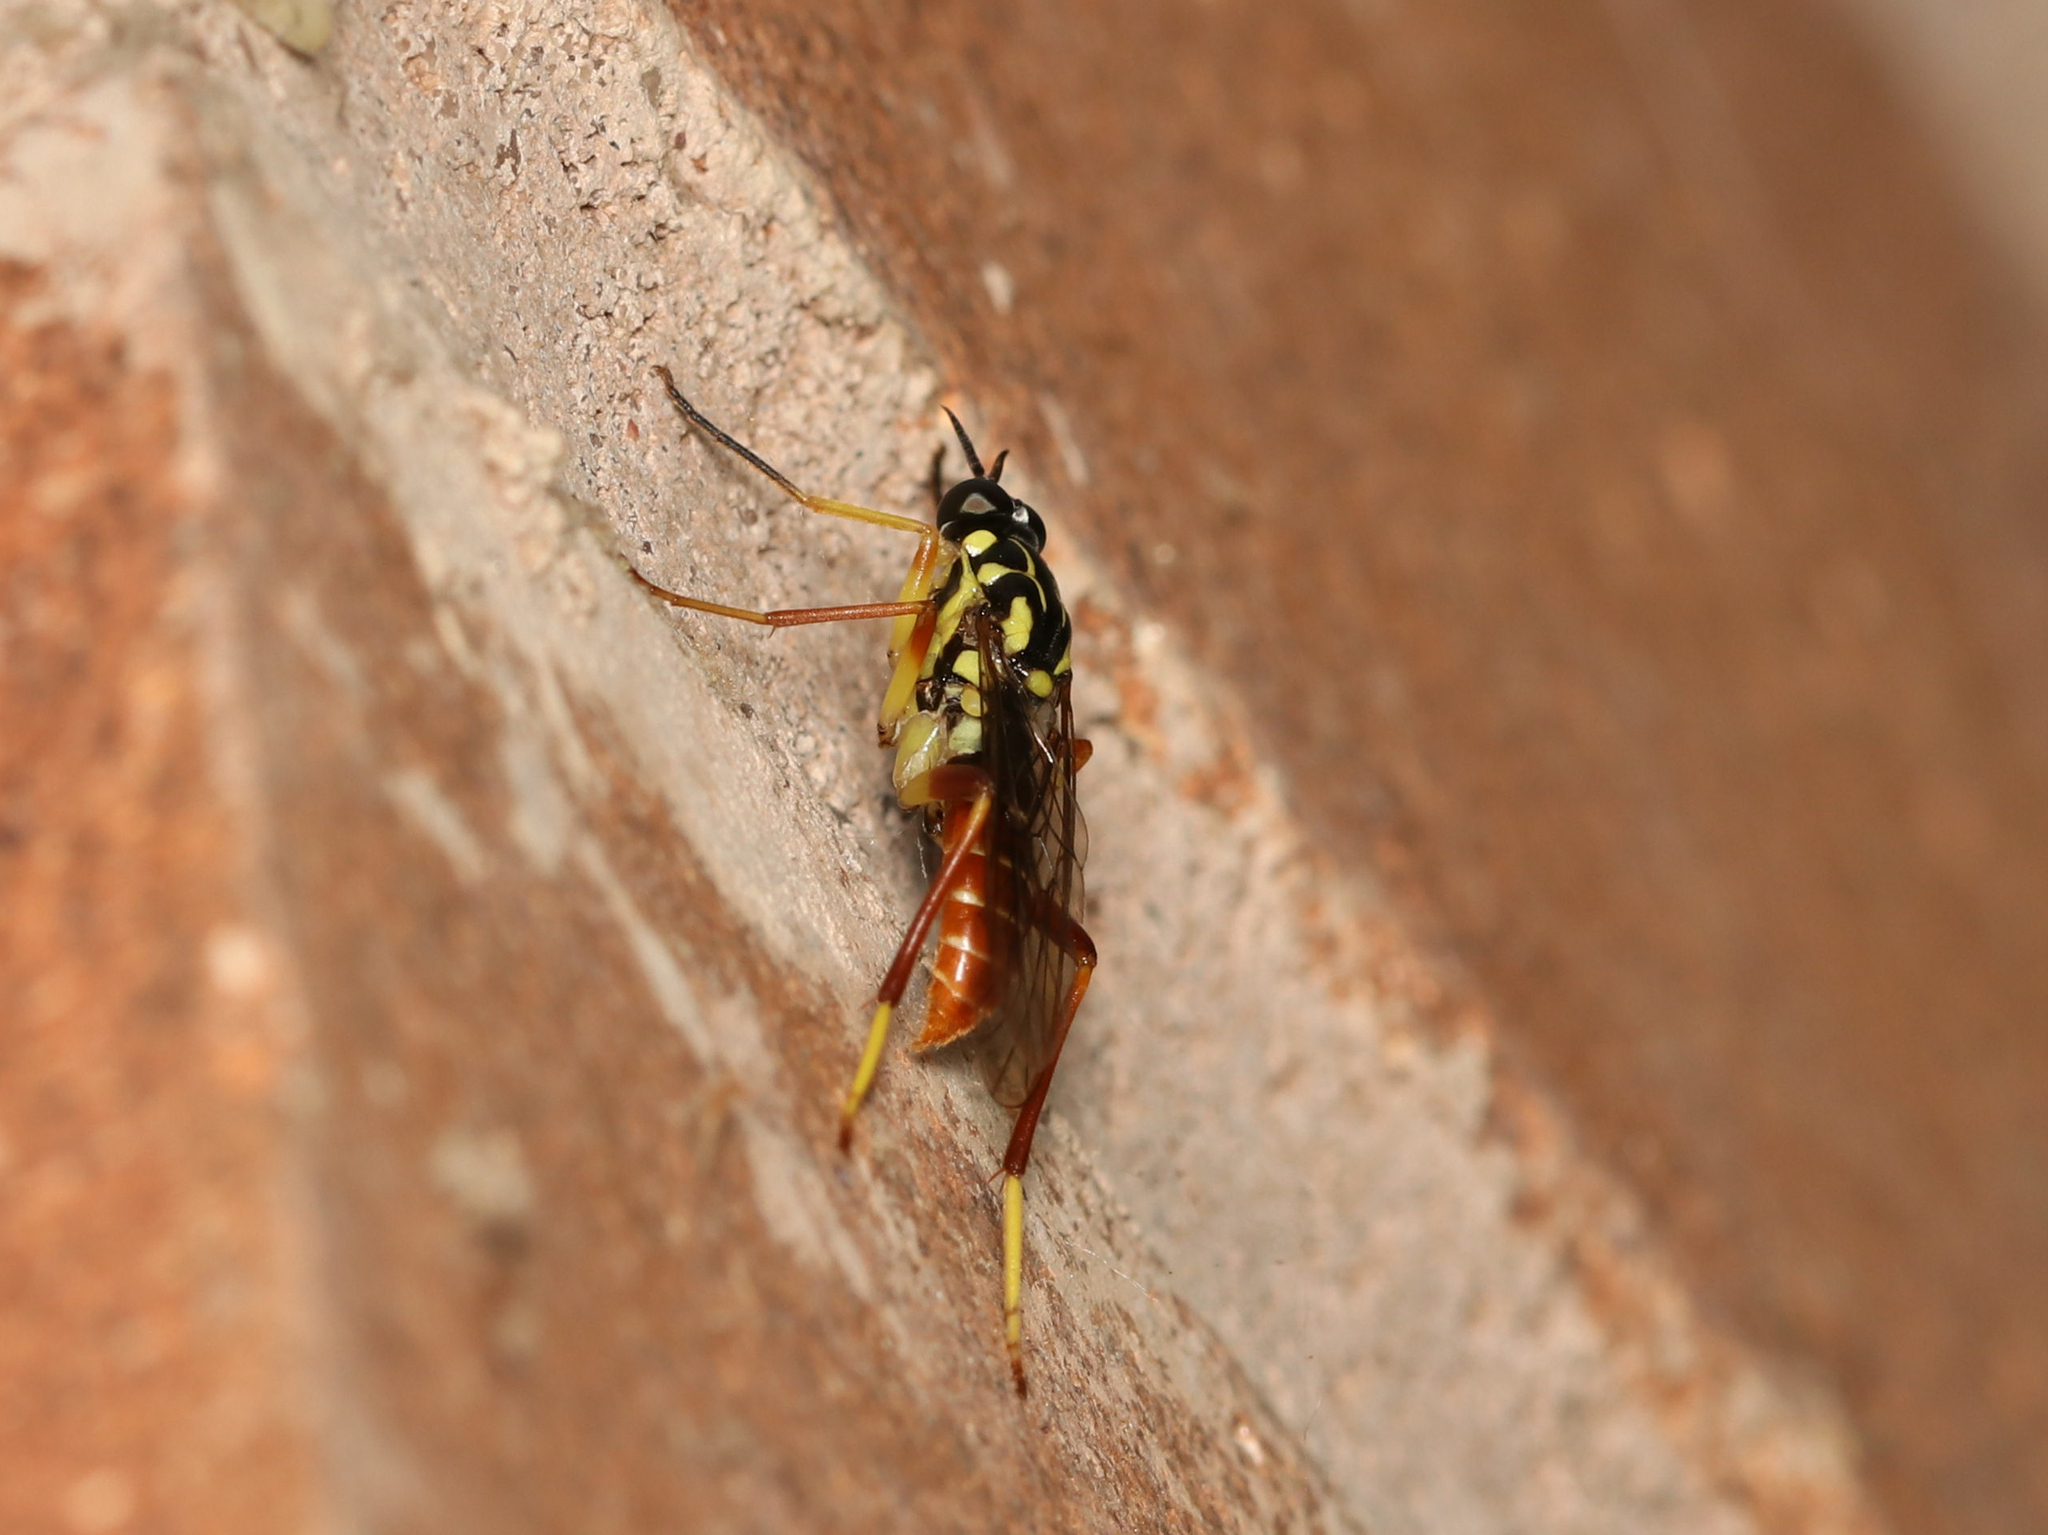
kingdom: Animalia
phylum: Arthropoda
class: Insecta
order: Diptera
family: Xylomyidae
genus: Xylomya
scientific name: Xylomya americana
